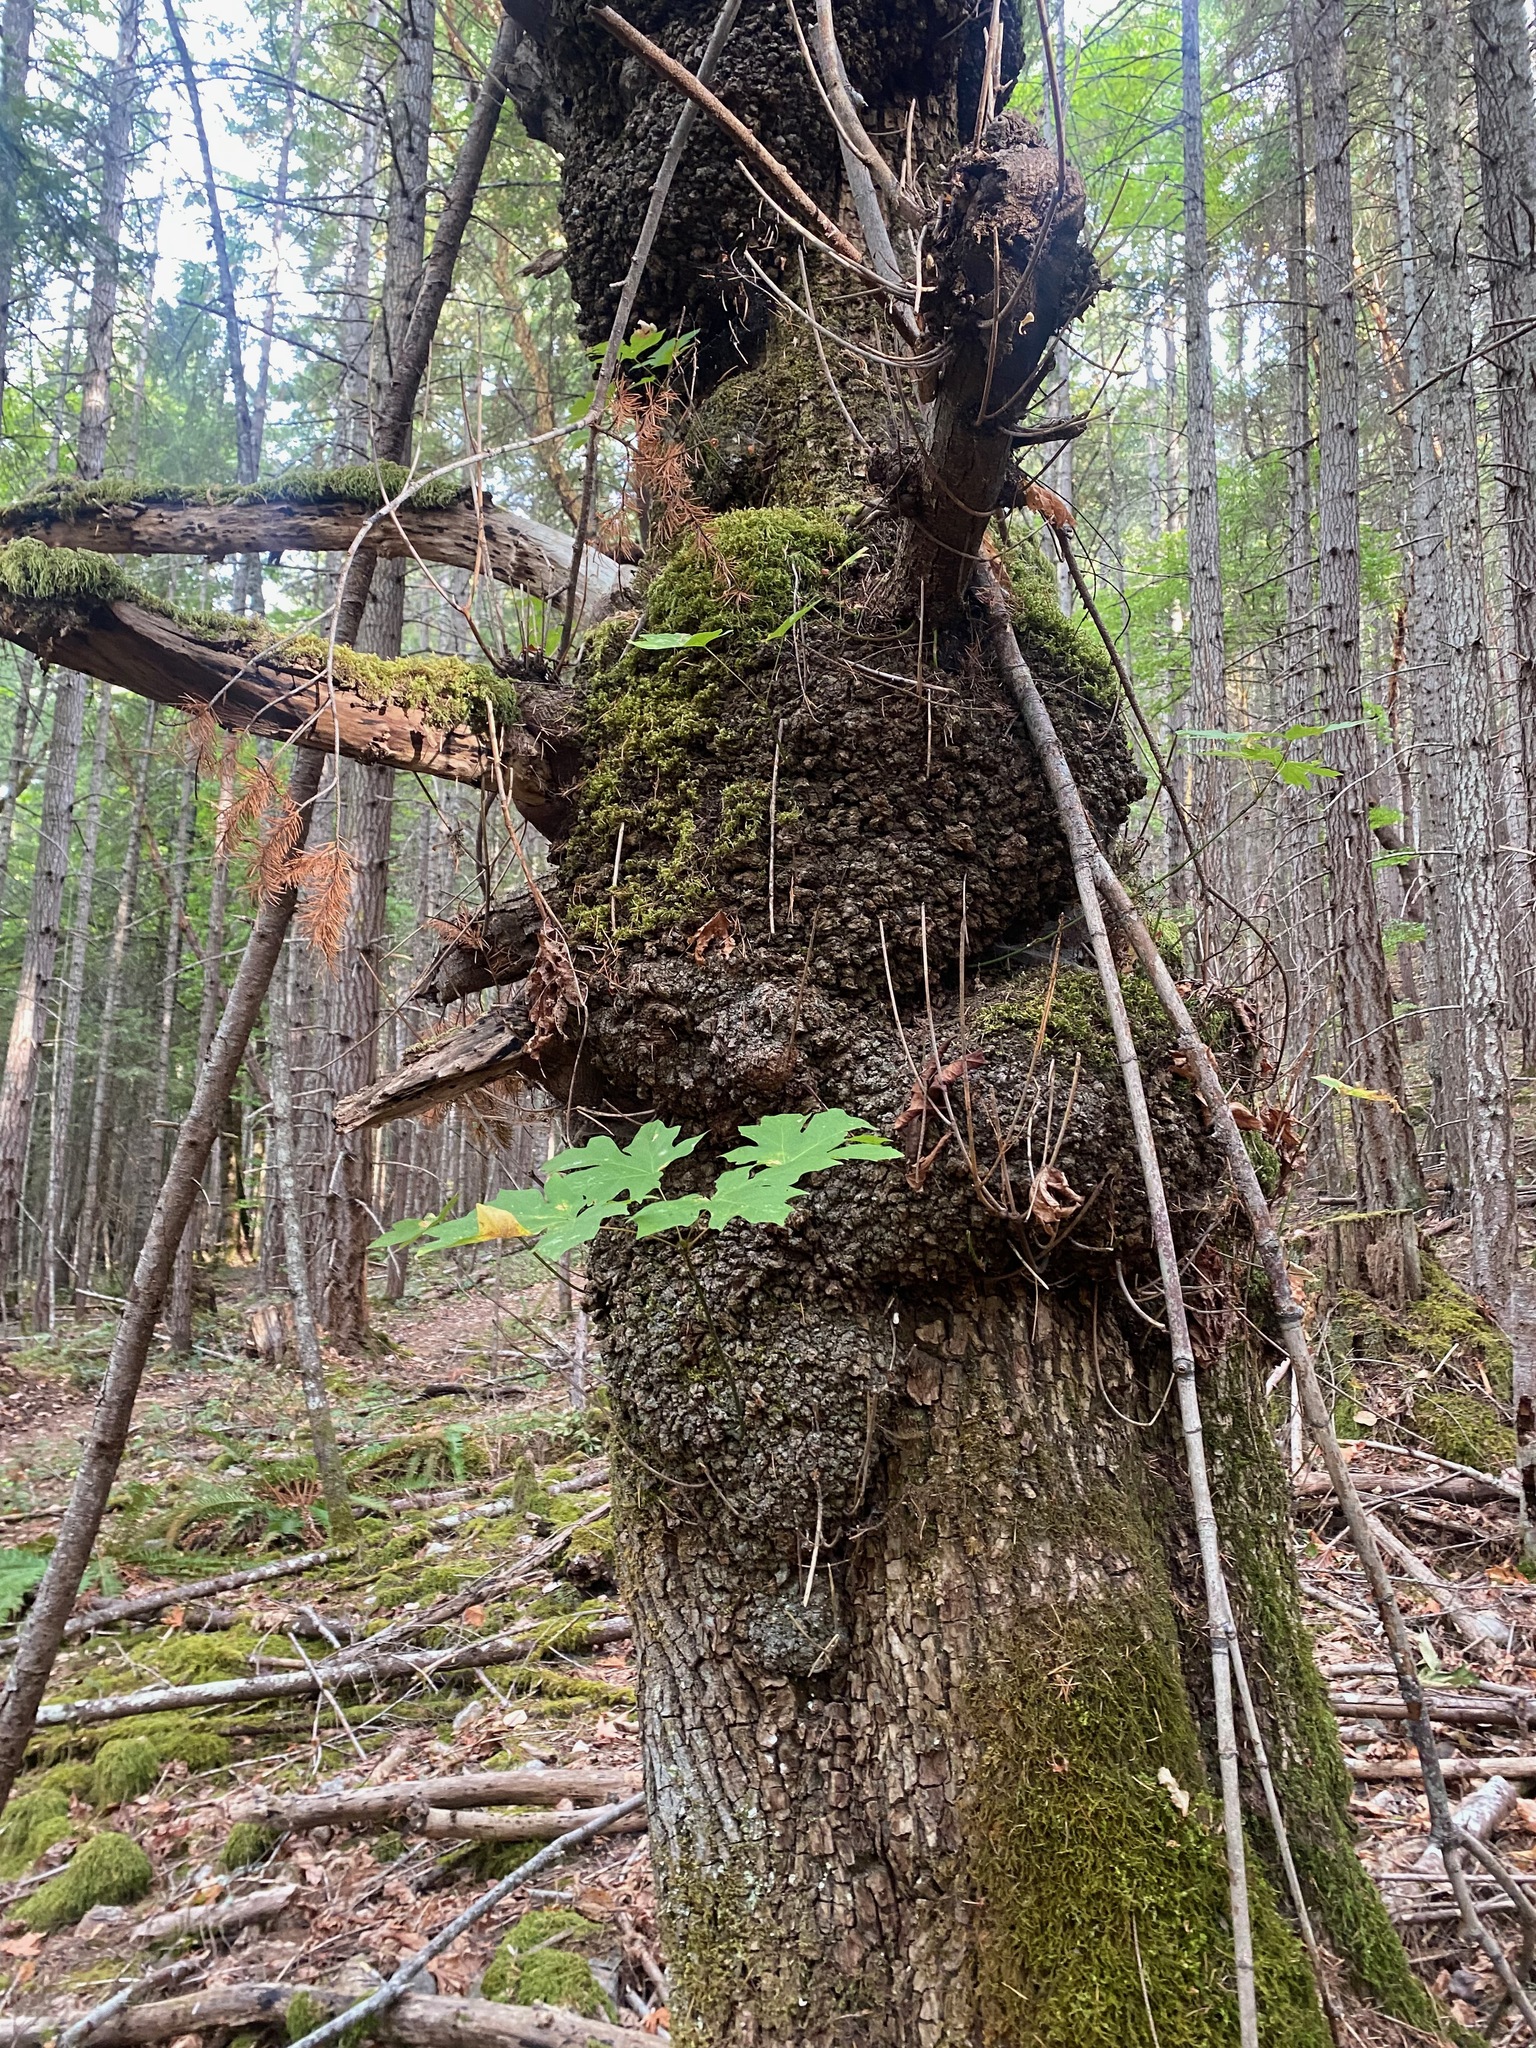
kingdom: Plantae
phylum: Tracheophyta
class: Magnoliopsida
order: Sapindales
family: Sapindaceae
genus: Acer
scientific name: Acer macrophyllum
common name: Oregon maple
